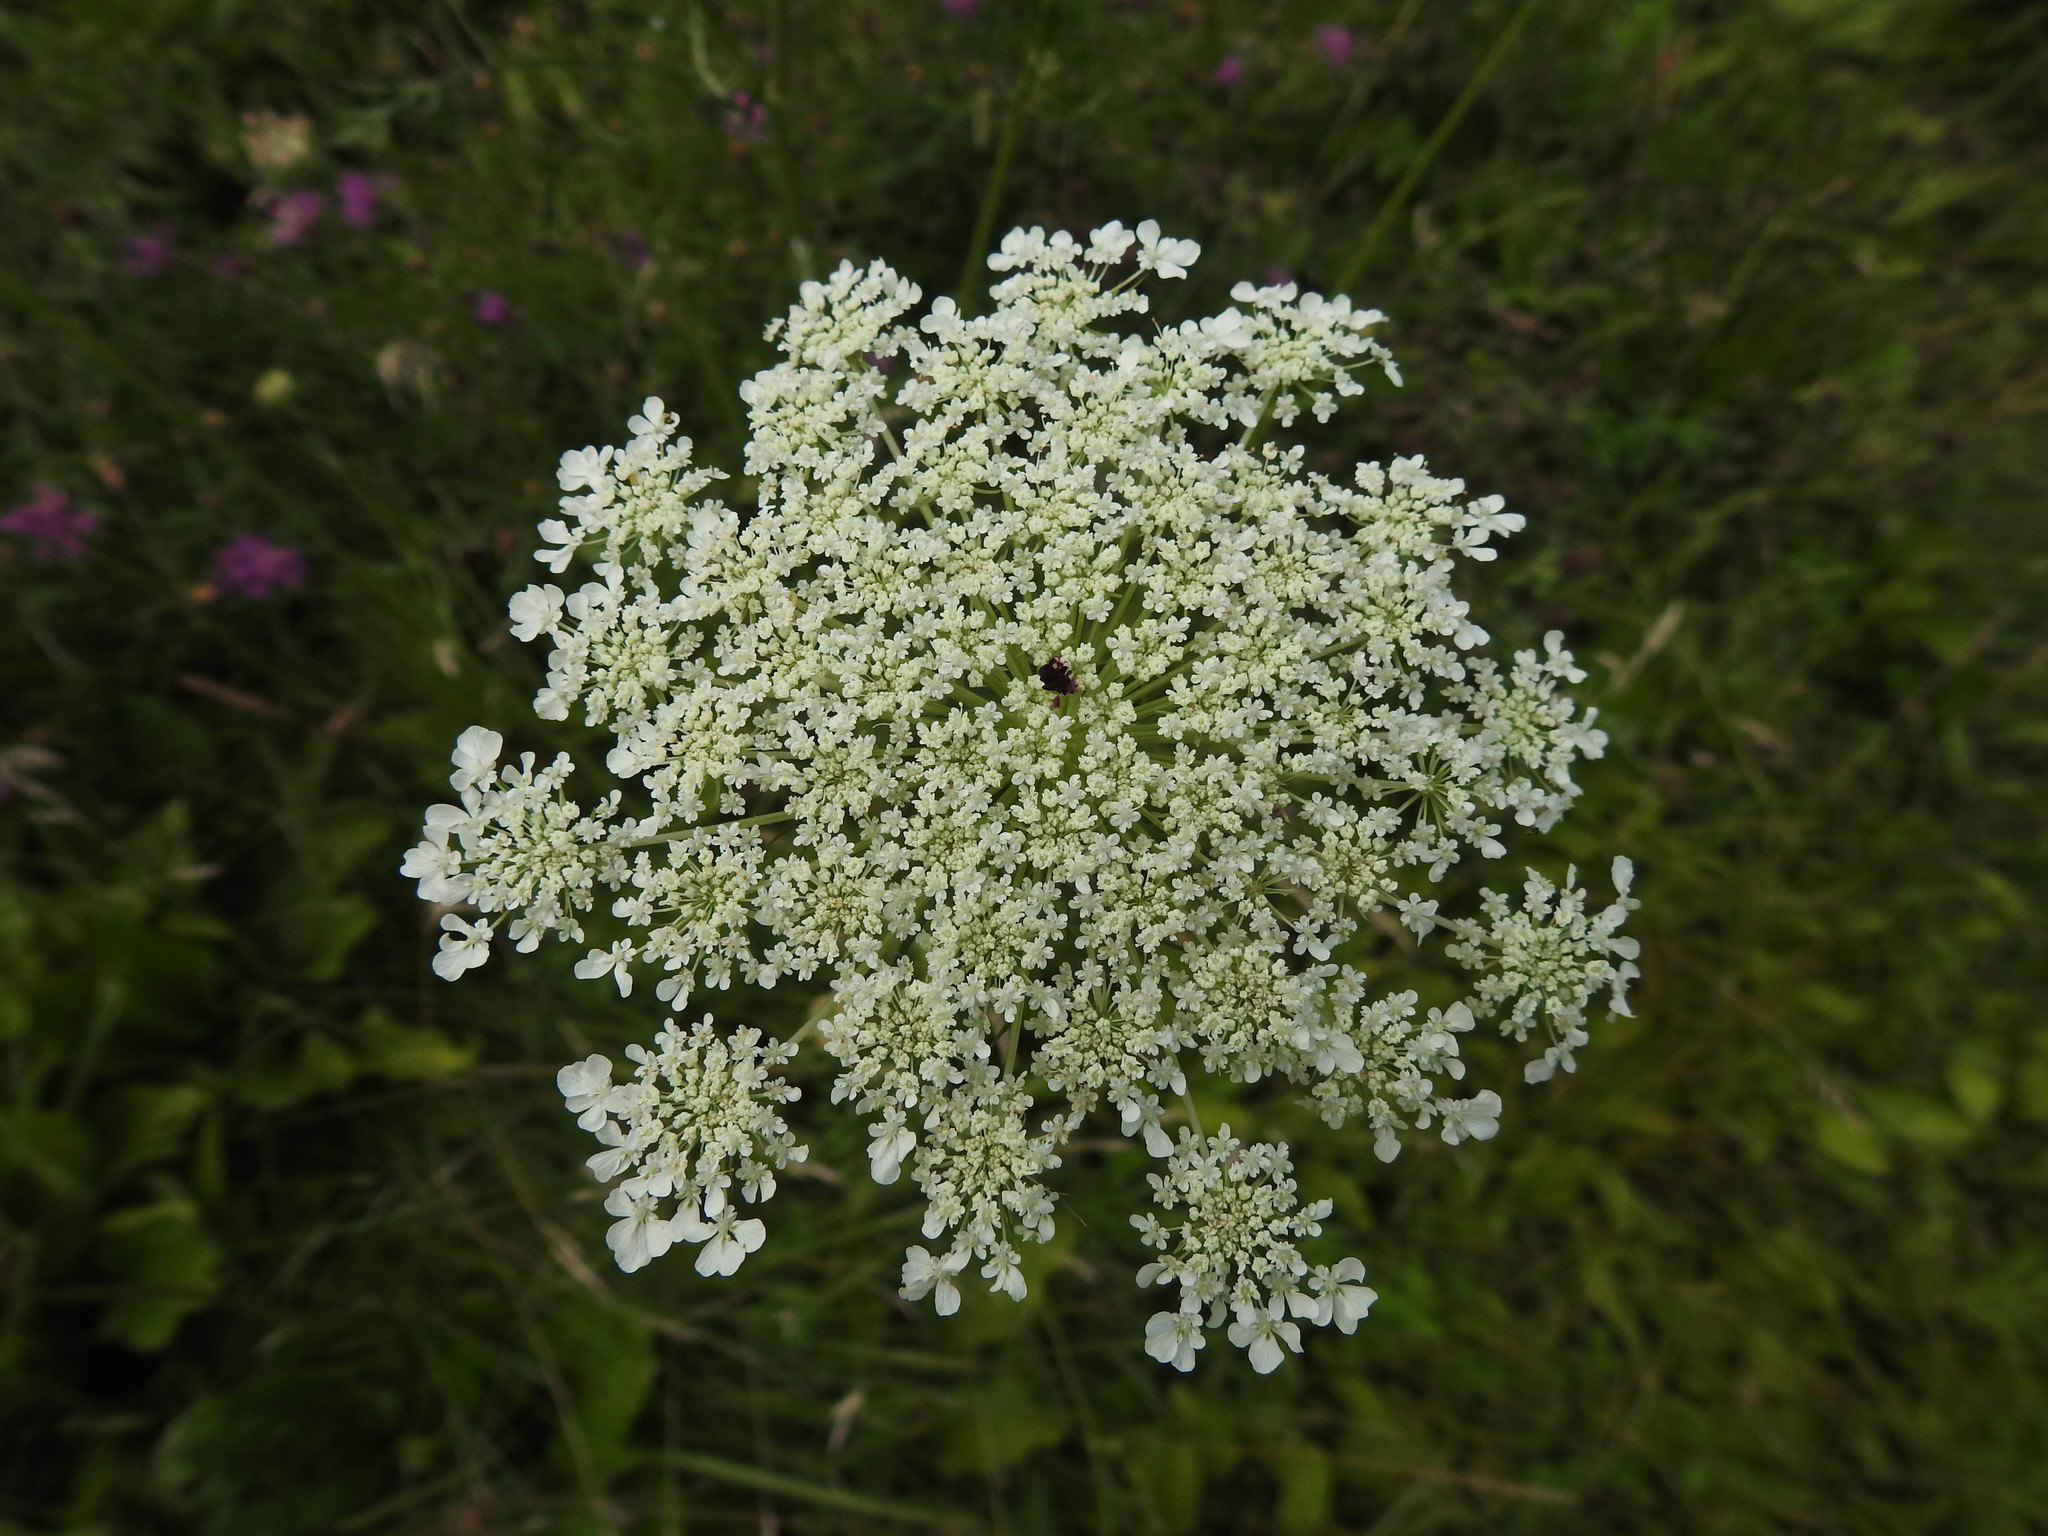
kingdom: Plantae
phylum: Tracheophyta
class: Magnoliopsida
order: Apiales
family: Apiaceae
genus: Daucus
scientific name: Daucus carota
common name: Wild carrot
